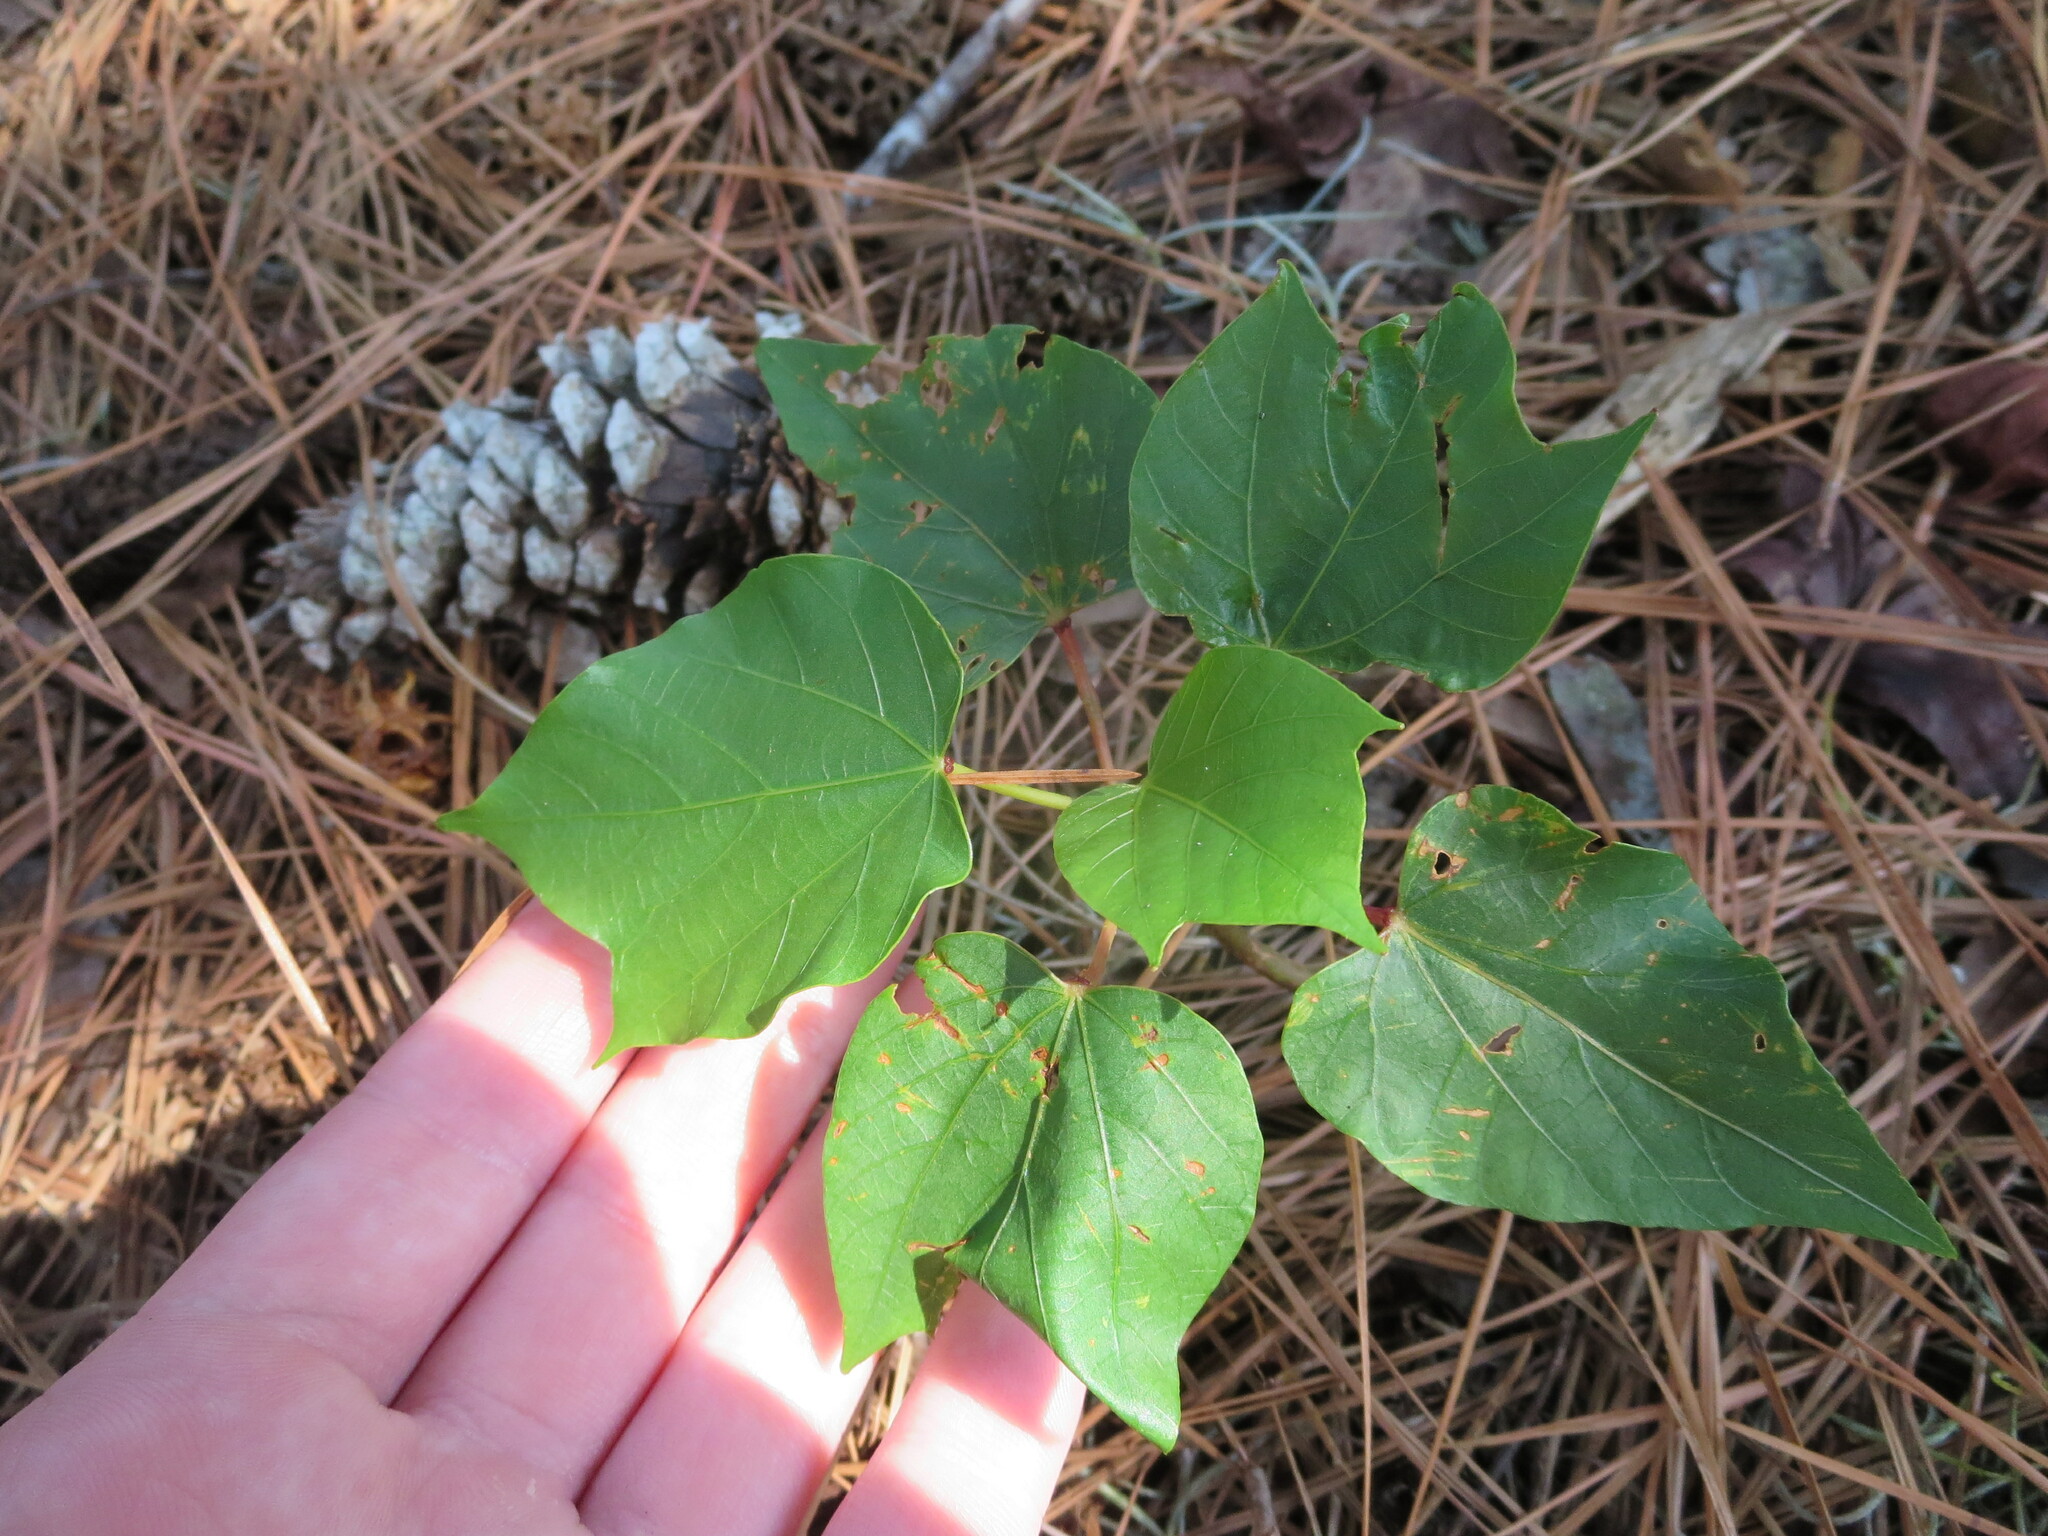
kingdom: Plantae
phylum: Tracheophyta
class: Magnoliopsida
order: Malpighiales
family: Euphorbiaceae
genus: Vernicia
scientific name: Vernicia fordii
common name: Tungoil tree
